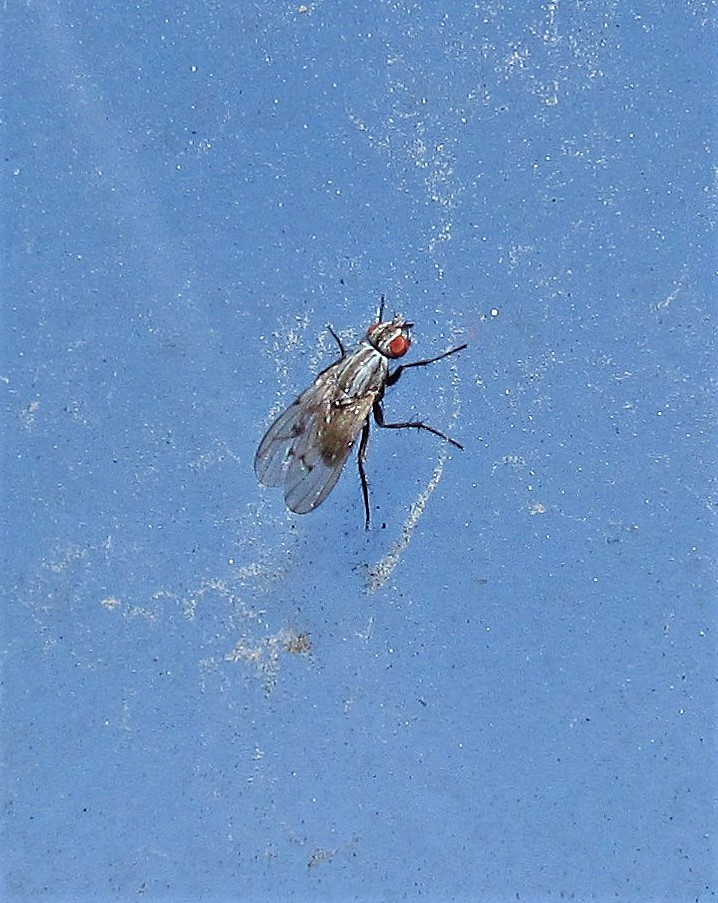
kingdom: Animalia
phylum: Arthropoda
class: Insecta
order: Diptera
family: Anthomyiidae
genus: Anthomyia
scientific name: Anthomyia punctipennis
